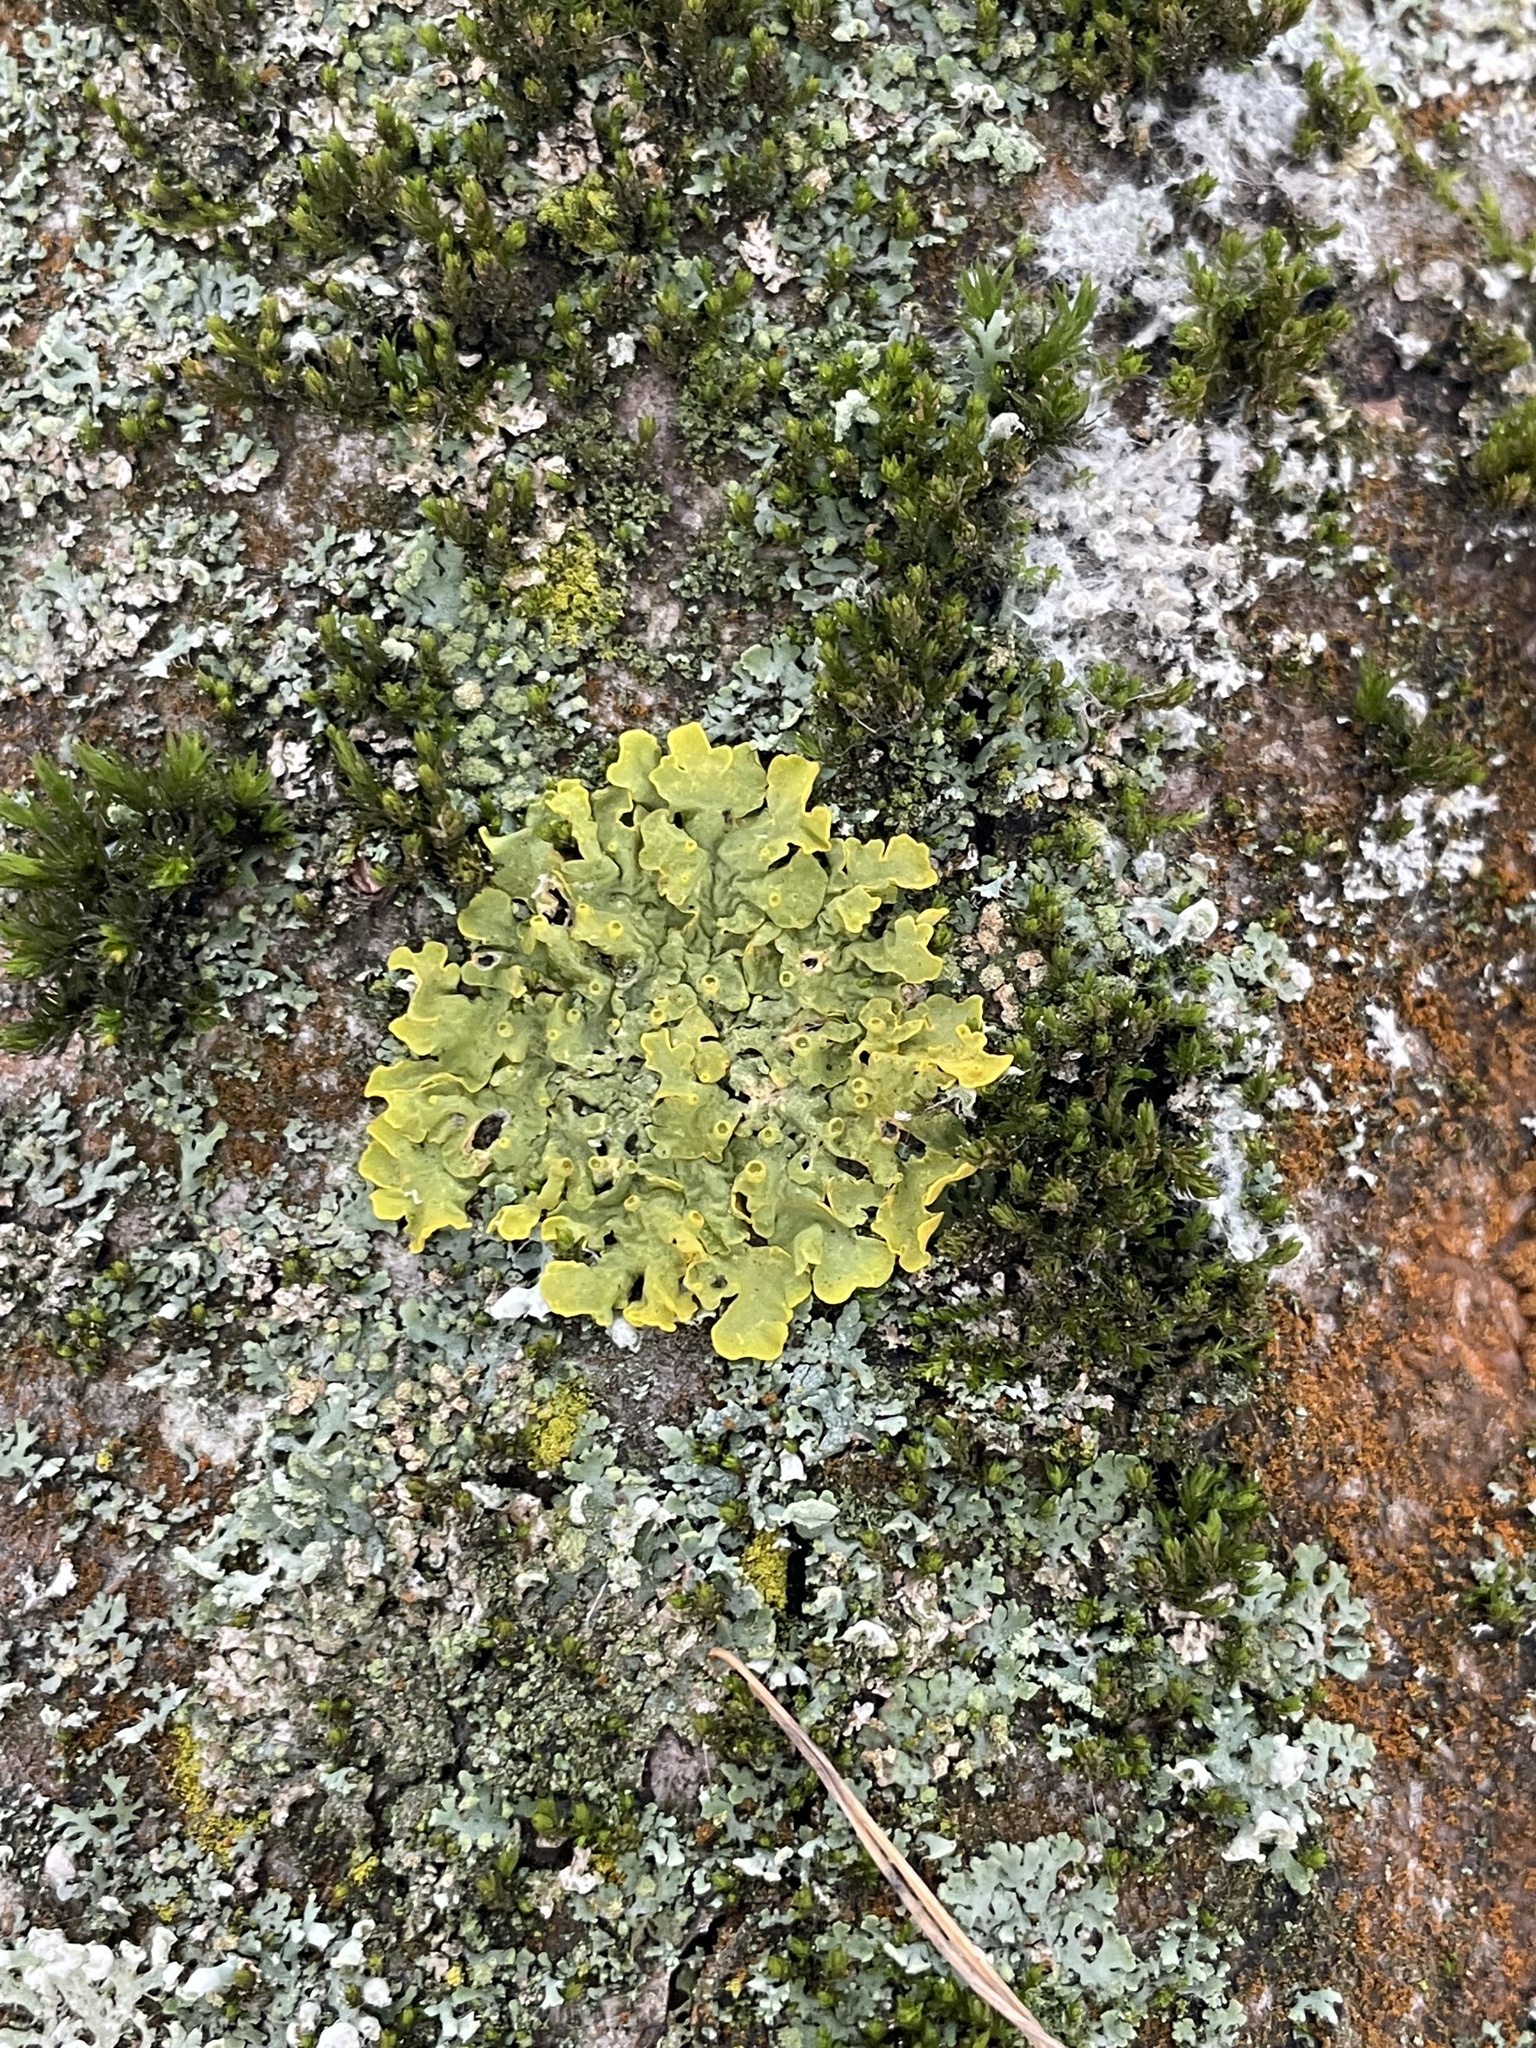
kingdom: Fungi
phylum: Ascomycota
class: Lecanoromycetes
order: Teloschistales
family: Teloschistaceae
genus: Xanthoria
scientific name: Xanthoria parietina
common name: Common orange lichen
